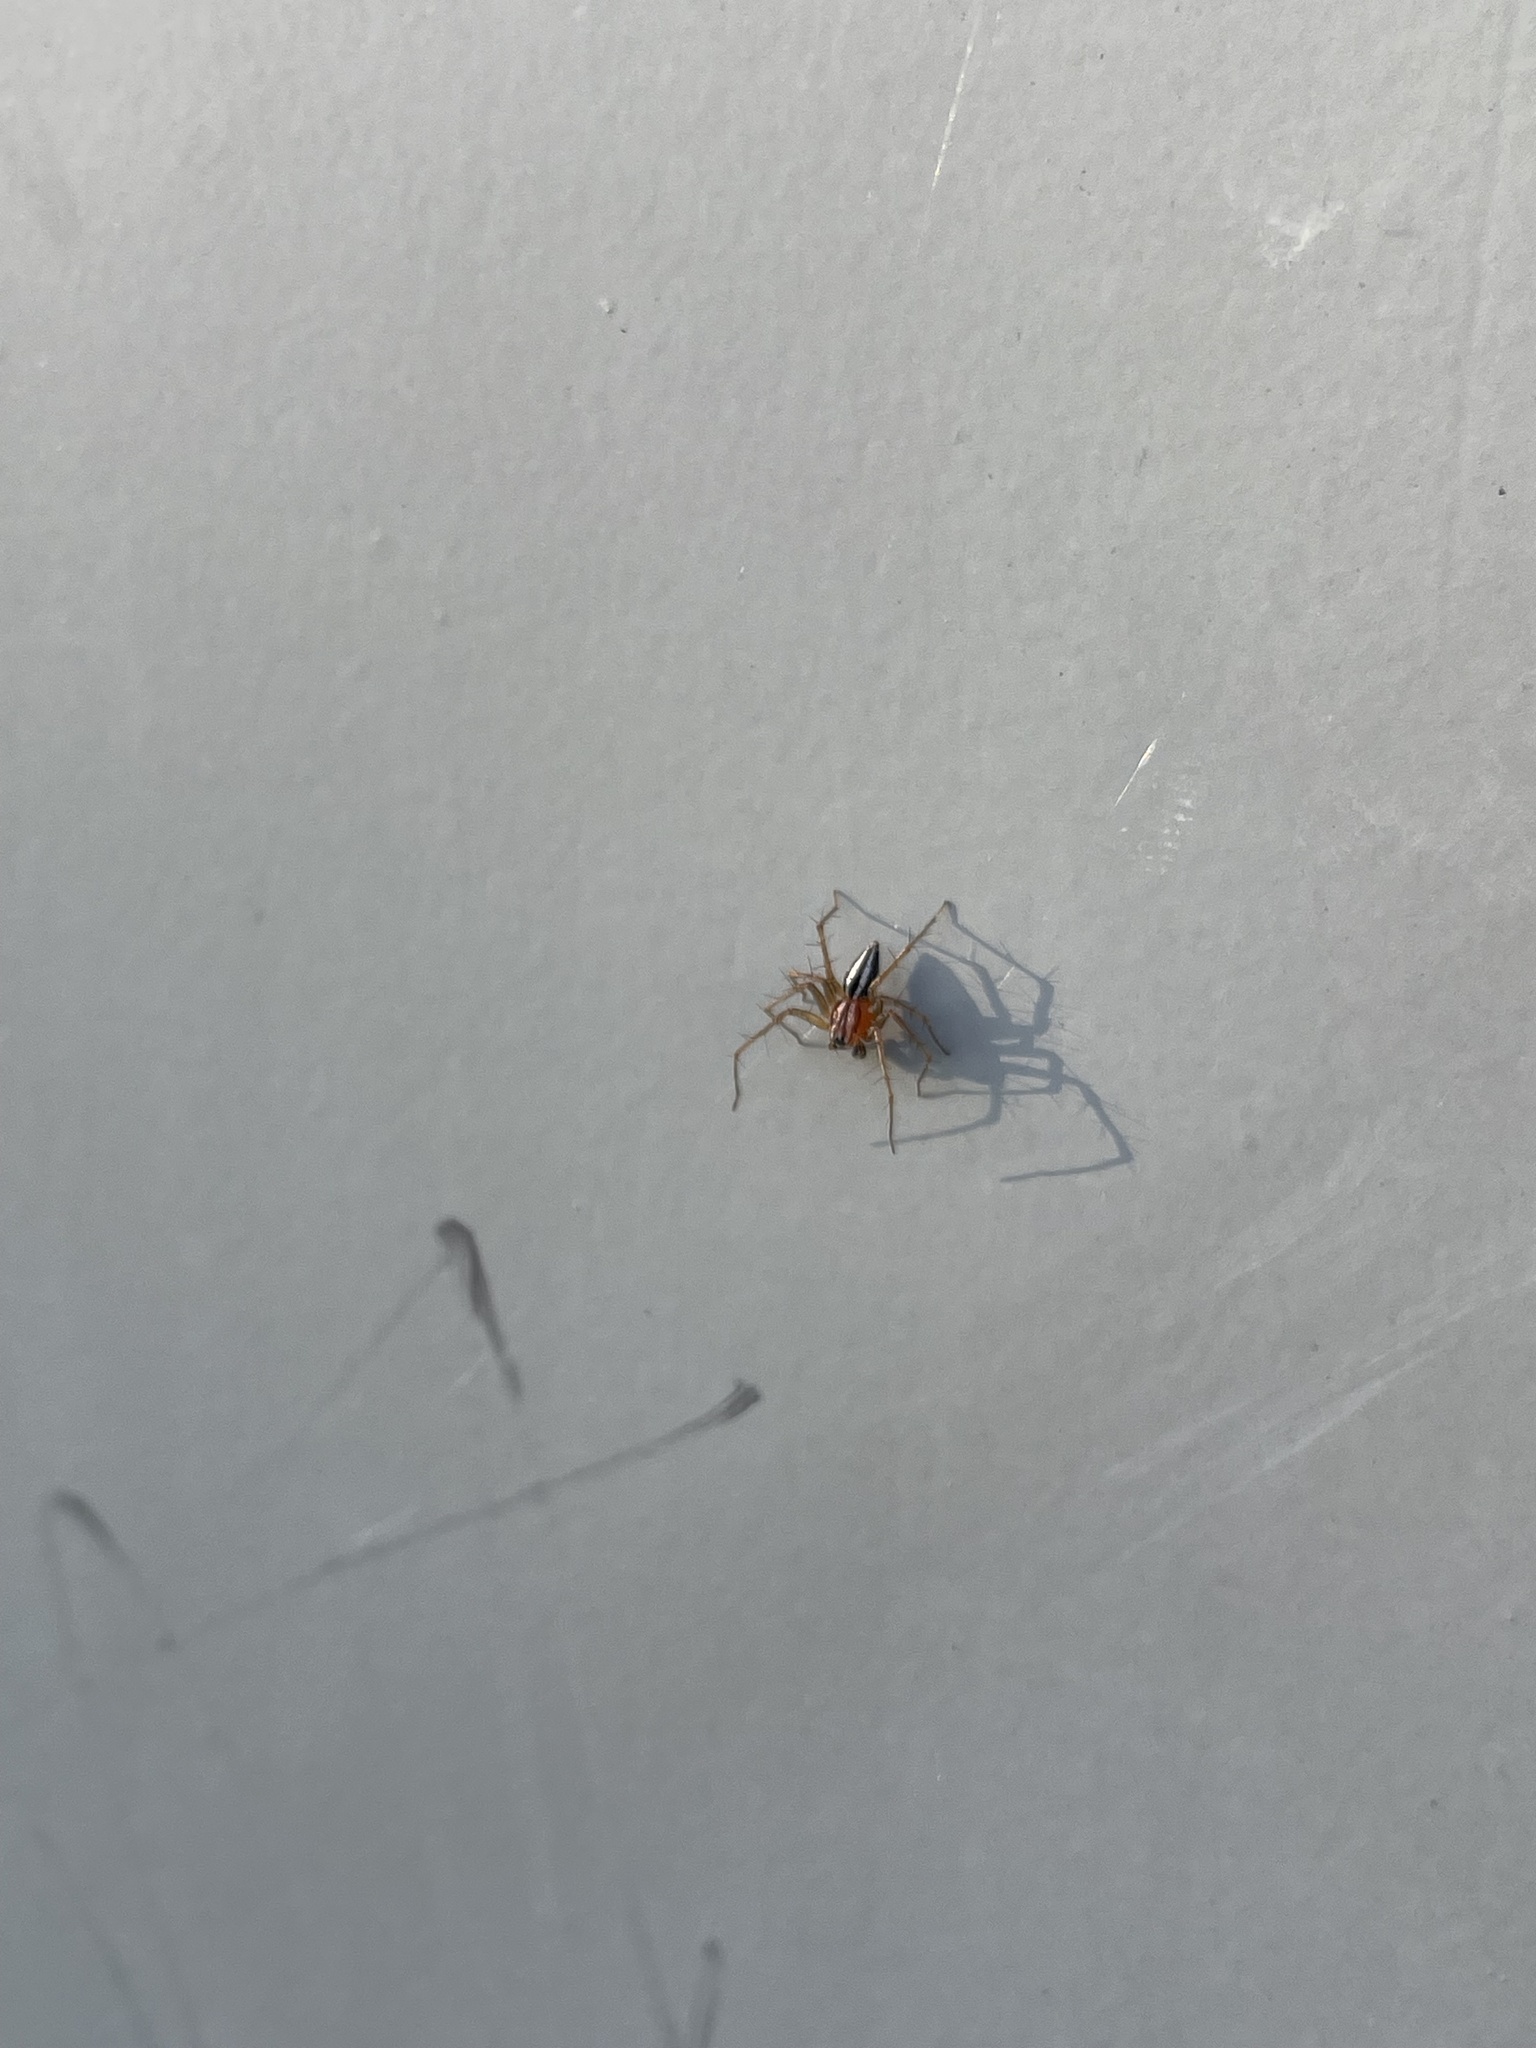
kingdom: Animalia
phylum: Arthropoda
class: Arachnida
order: Araneae
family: Oxyopidae
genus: Oxyopes
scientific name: Oxyopes gracilipes
